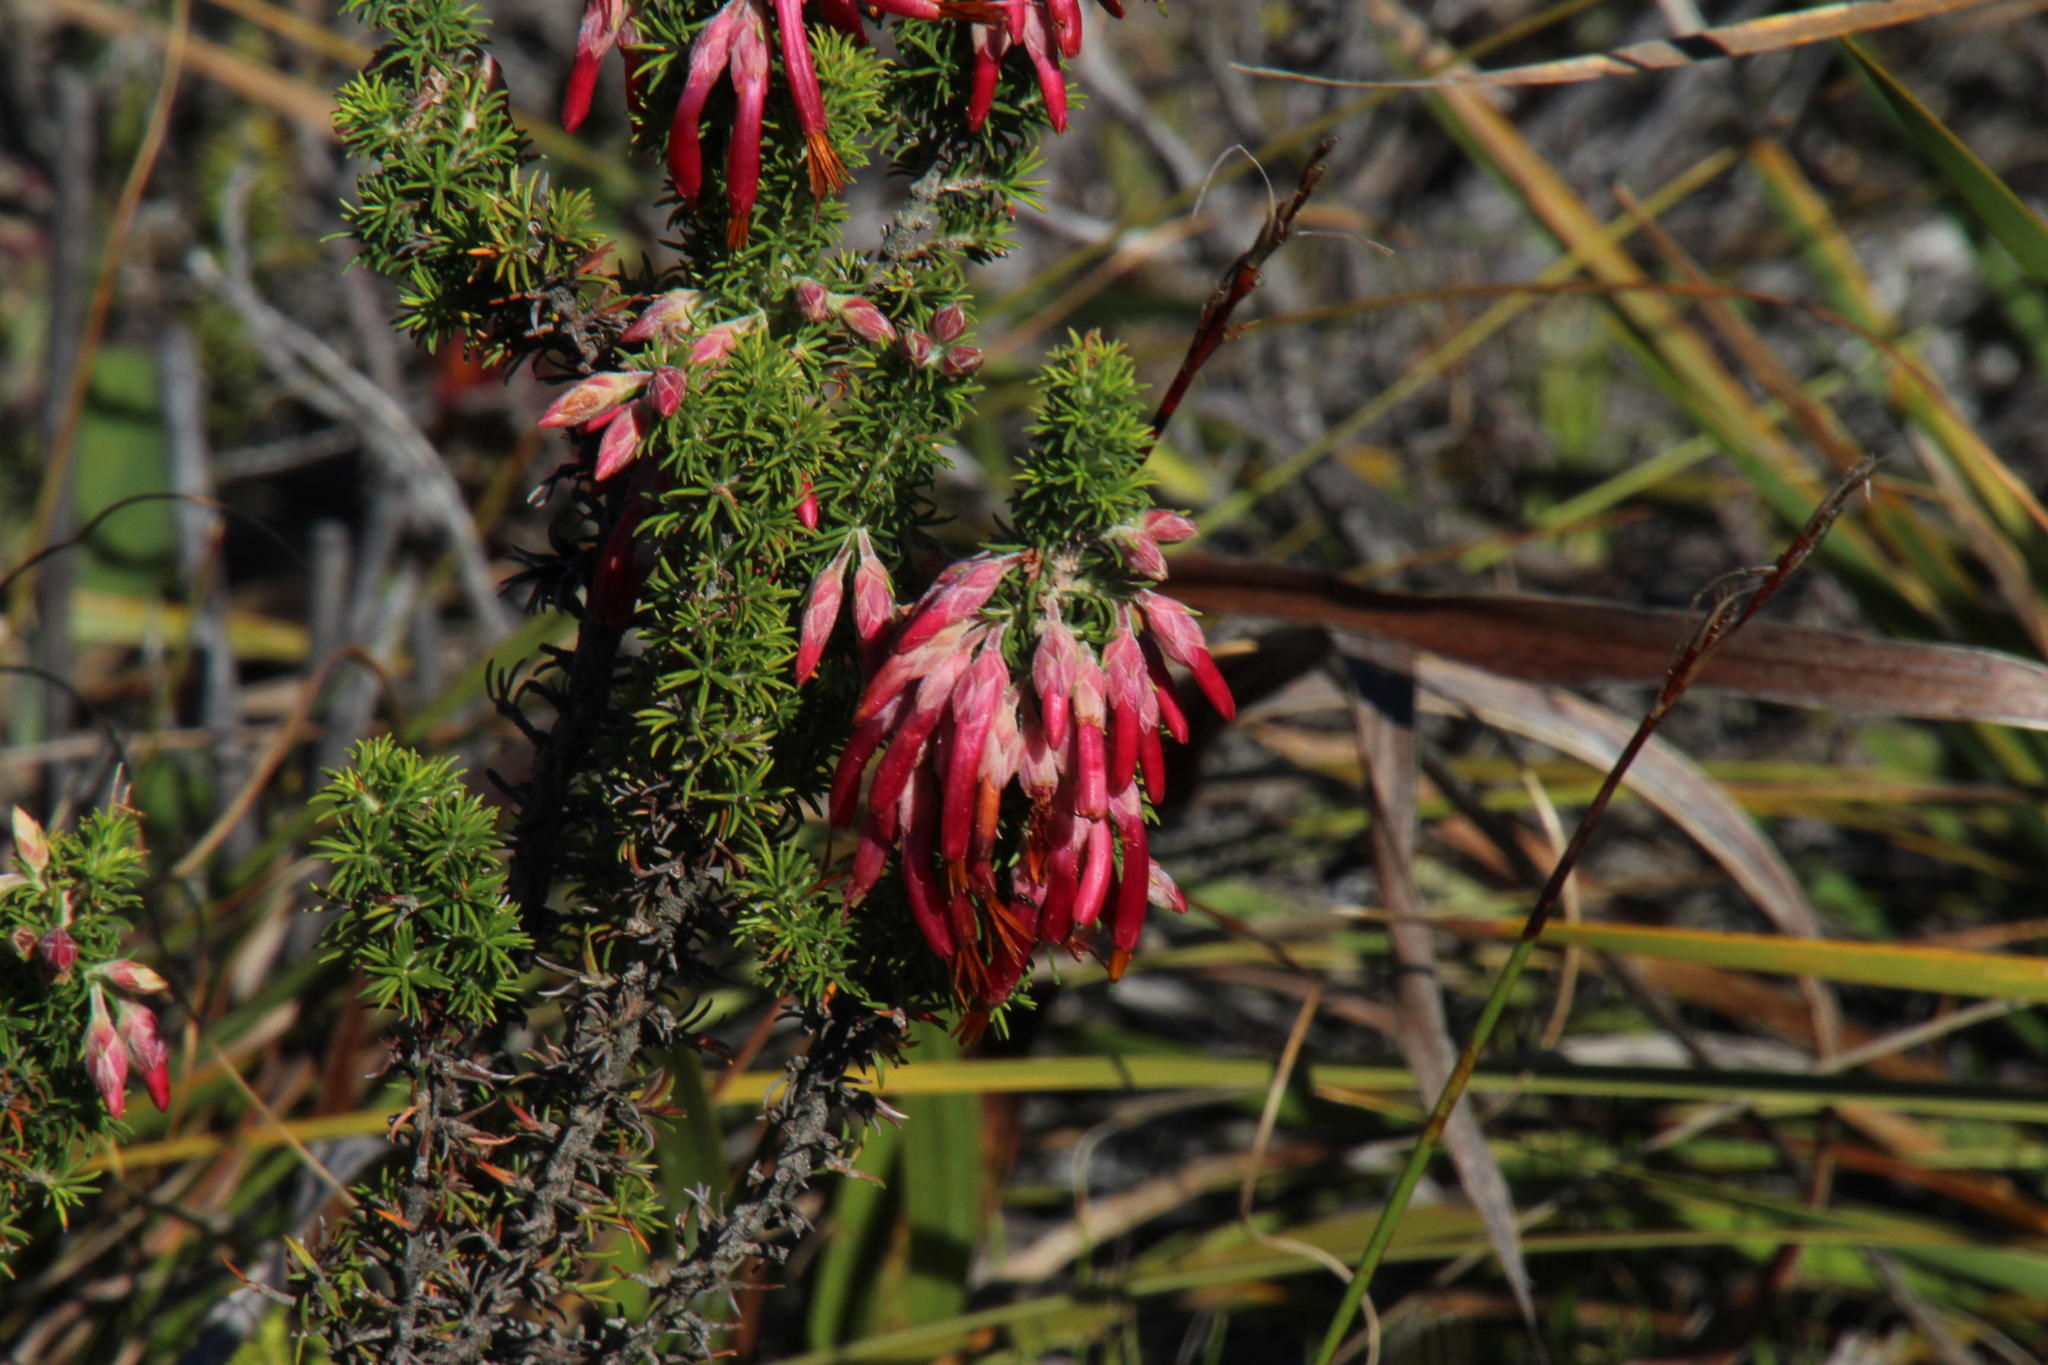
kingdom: Plantae
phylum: Tracheophyta
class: Magnoliopsida
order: Ericales
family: Ericaceae
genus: Erica
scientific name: Erica coccinea
